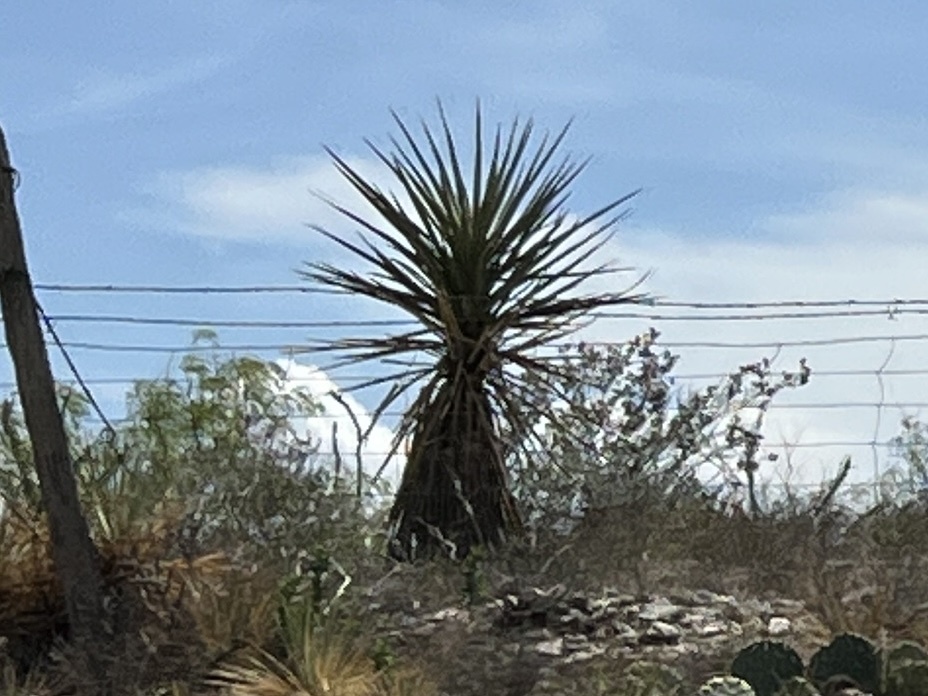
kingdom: Plantae
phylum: Tracheophyta
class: Liliopsida
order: Asparagales
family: Asparagaceae
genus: Yucca
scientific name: Yucca treculiana
